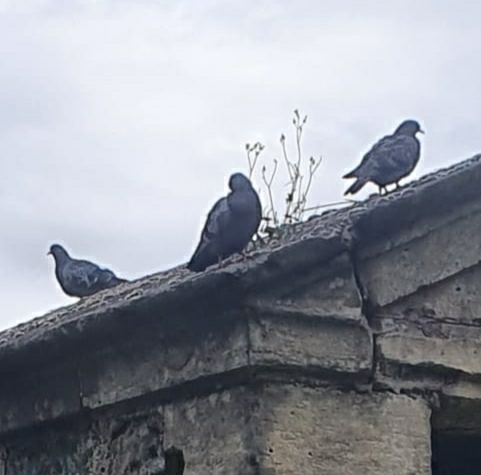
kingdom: Animalia
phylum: Chordata
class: Aves
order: Columbiformes
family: Columbidae
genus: Columba
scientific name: Columba livia
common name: Rock pigeon
